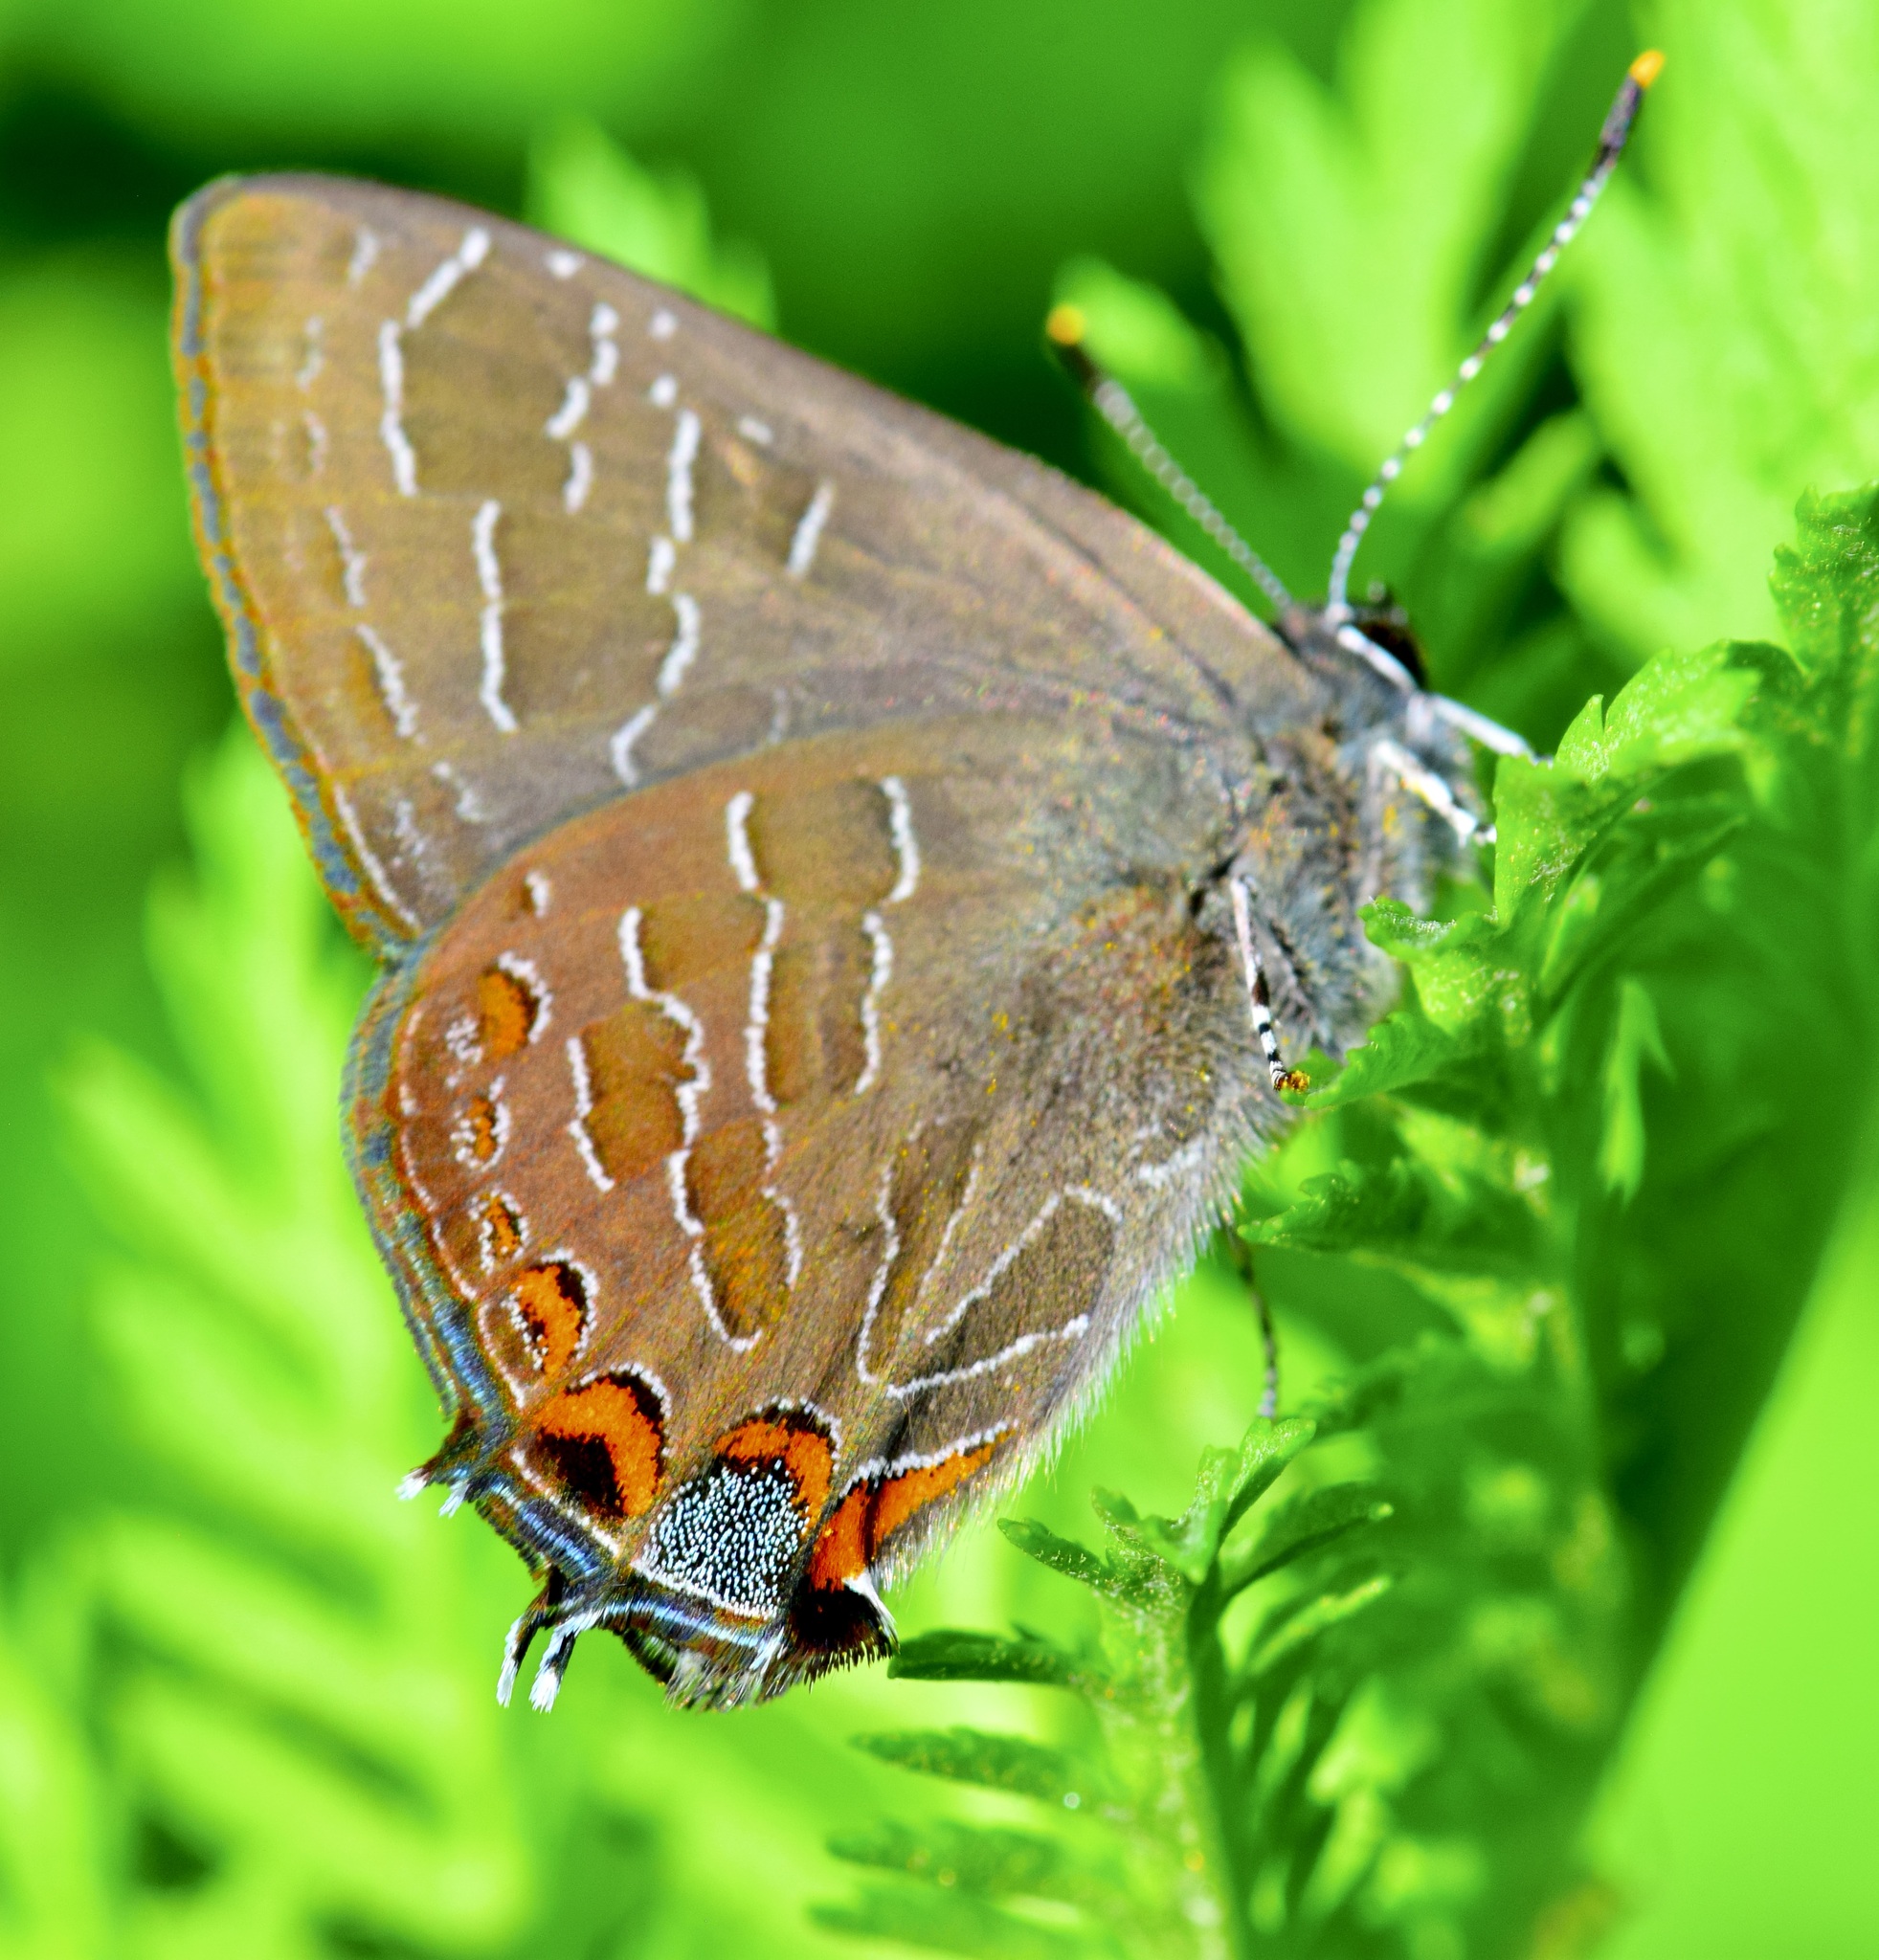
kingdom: Animalia
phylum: Arthropoda
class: Insecta
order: Lepidoptera
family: Lycaenidae
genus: Satyrium
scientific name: Satyrium liparops
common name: Striped hairstreak
